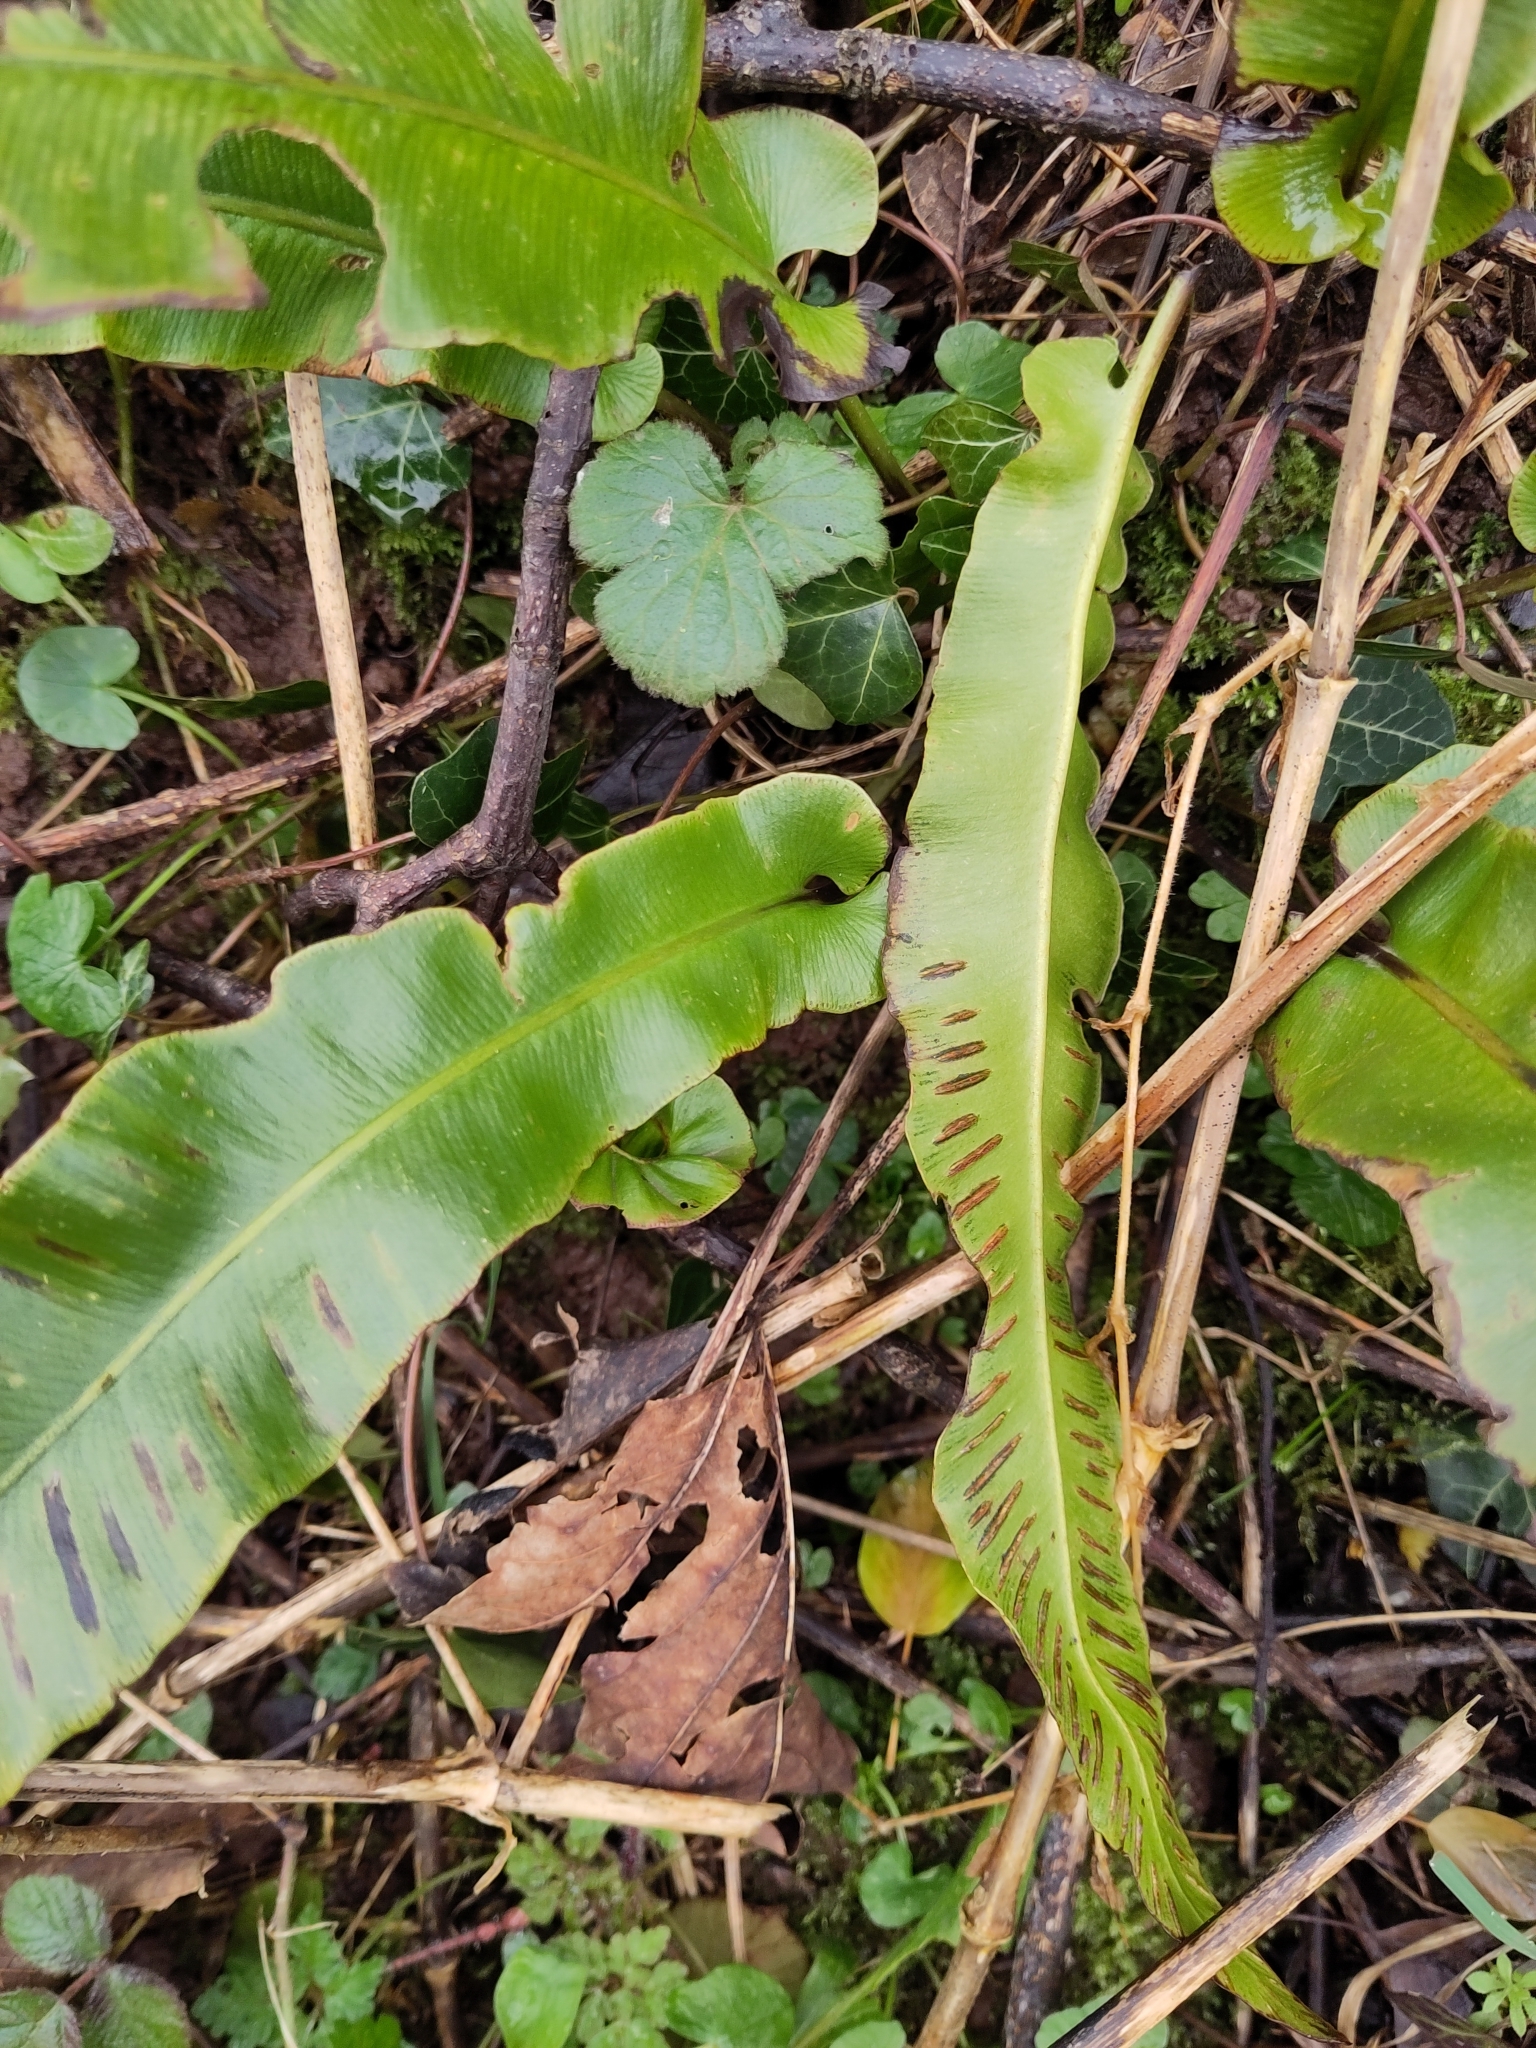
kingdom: Plantae
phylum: Tracheophyta
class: Polypodiopsida
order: Polypodiales
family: Aspleniaceae
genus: Asplenium
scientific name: Asplenium scolopendrium
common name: Hart's-tongue fern
